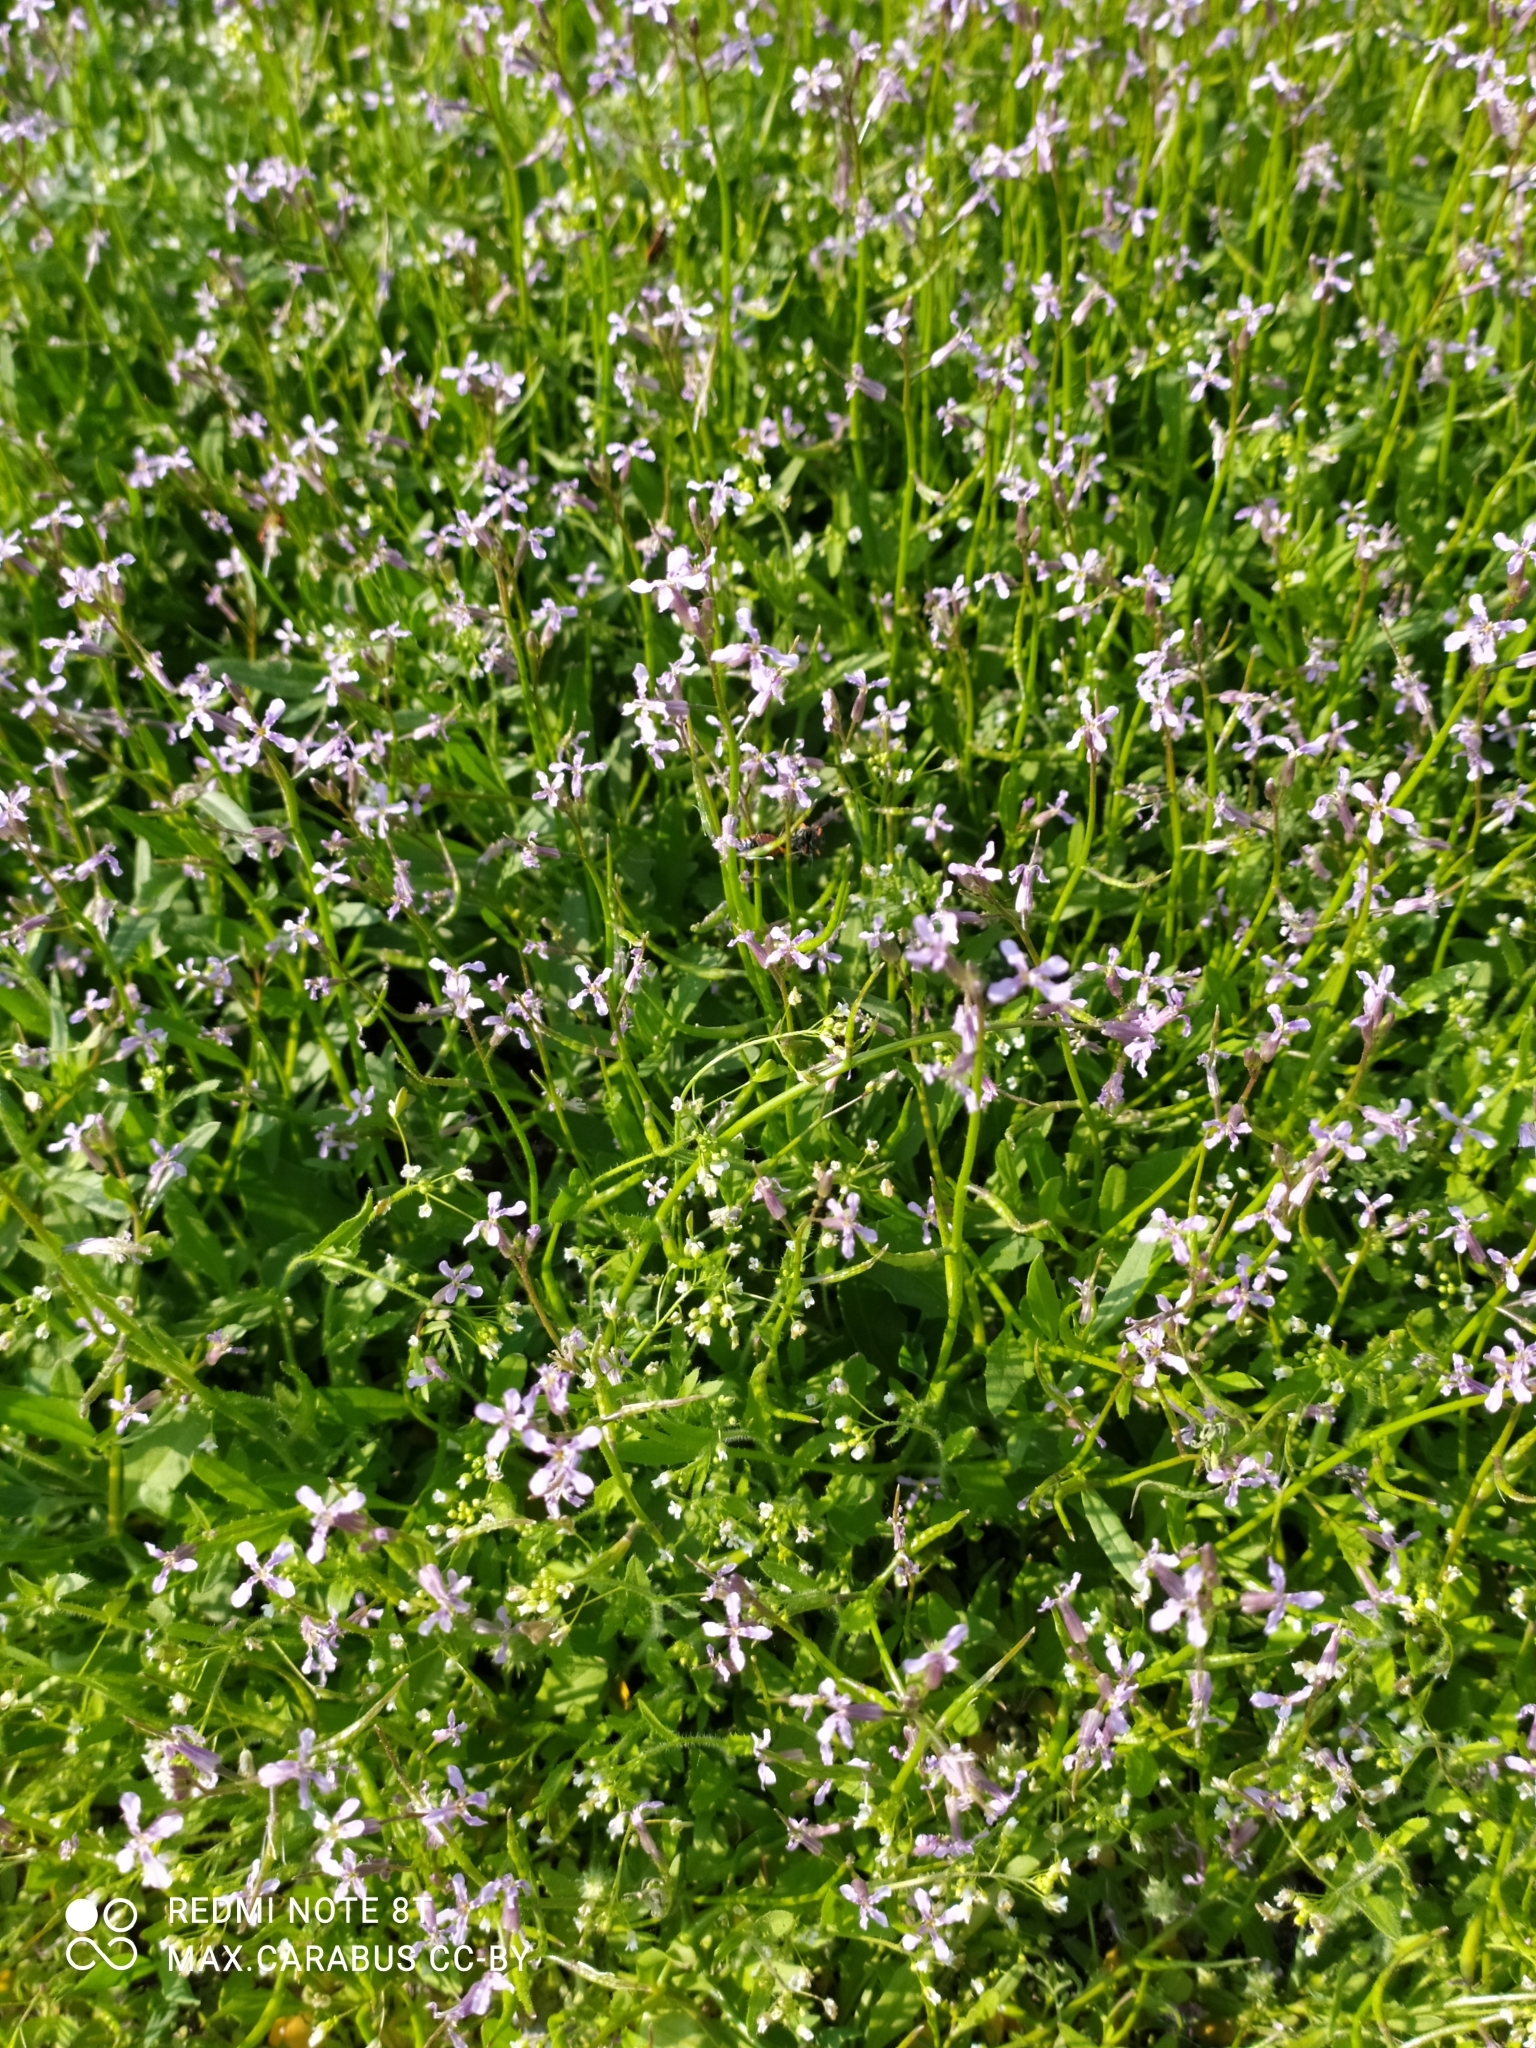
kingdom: Plantae
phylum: Tracheophyta
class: Magnoliopsida
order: Brassicales
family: Brassicaceae
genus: Chorispora
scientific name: Chorispora tenella
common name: Crossflower
